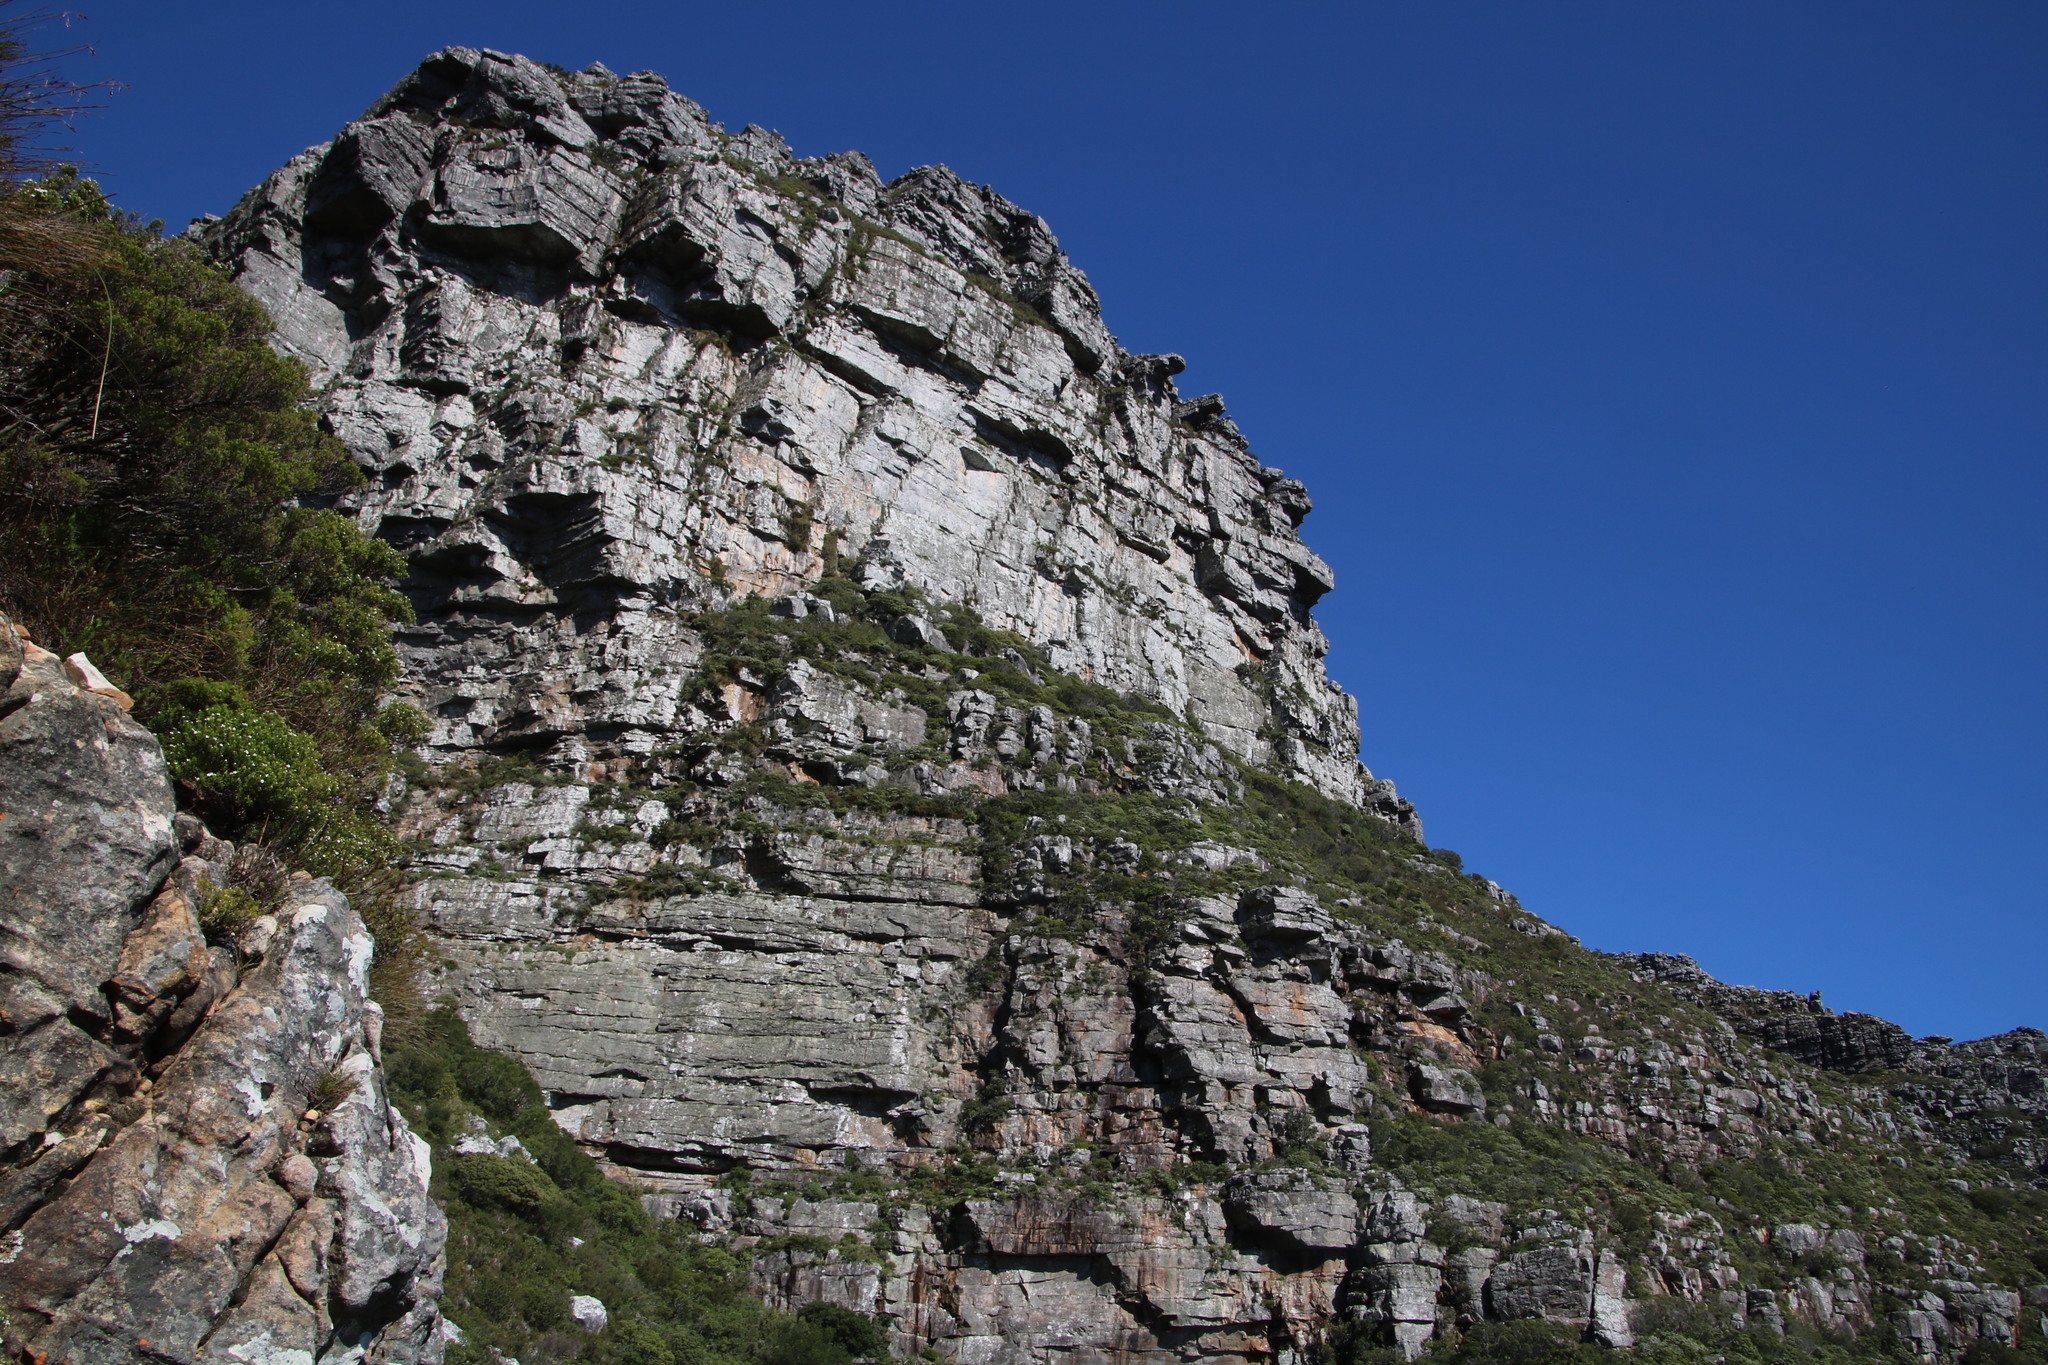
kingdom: Plantae
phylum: Tracheophyta
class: Magnoliopsida
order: Sapindales
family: Rutaceae
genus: Coleonema
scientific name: Coleonema album
